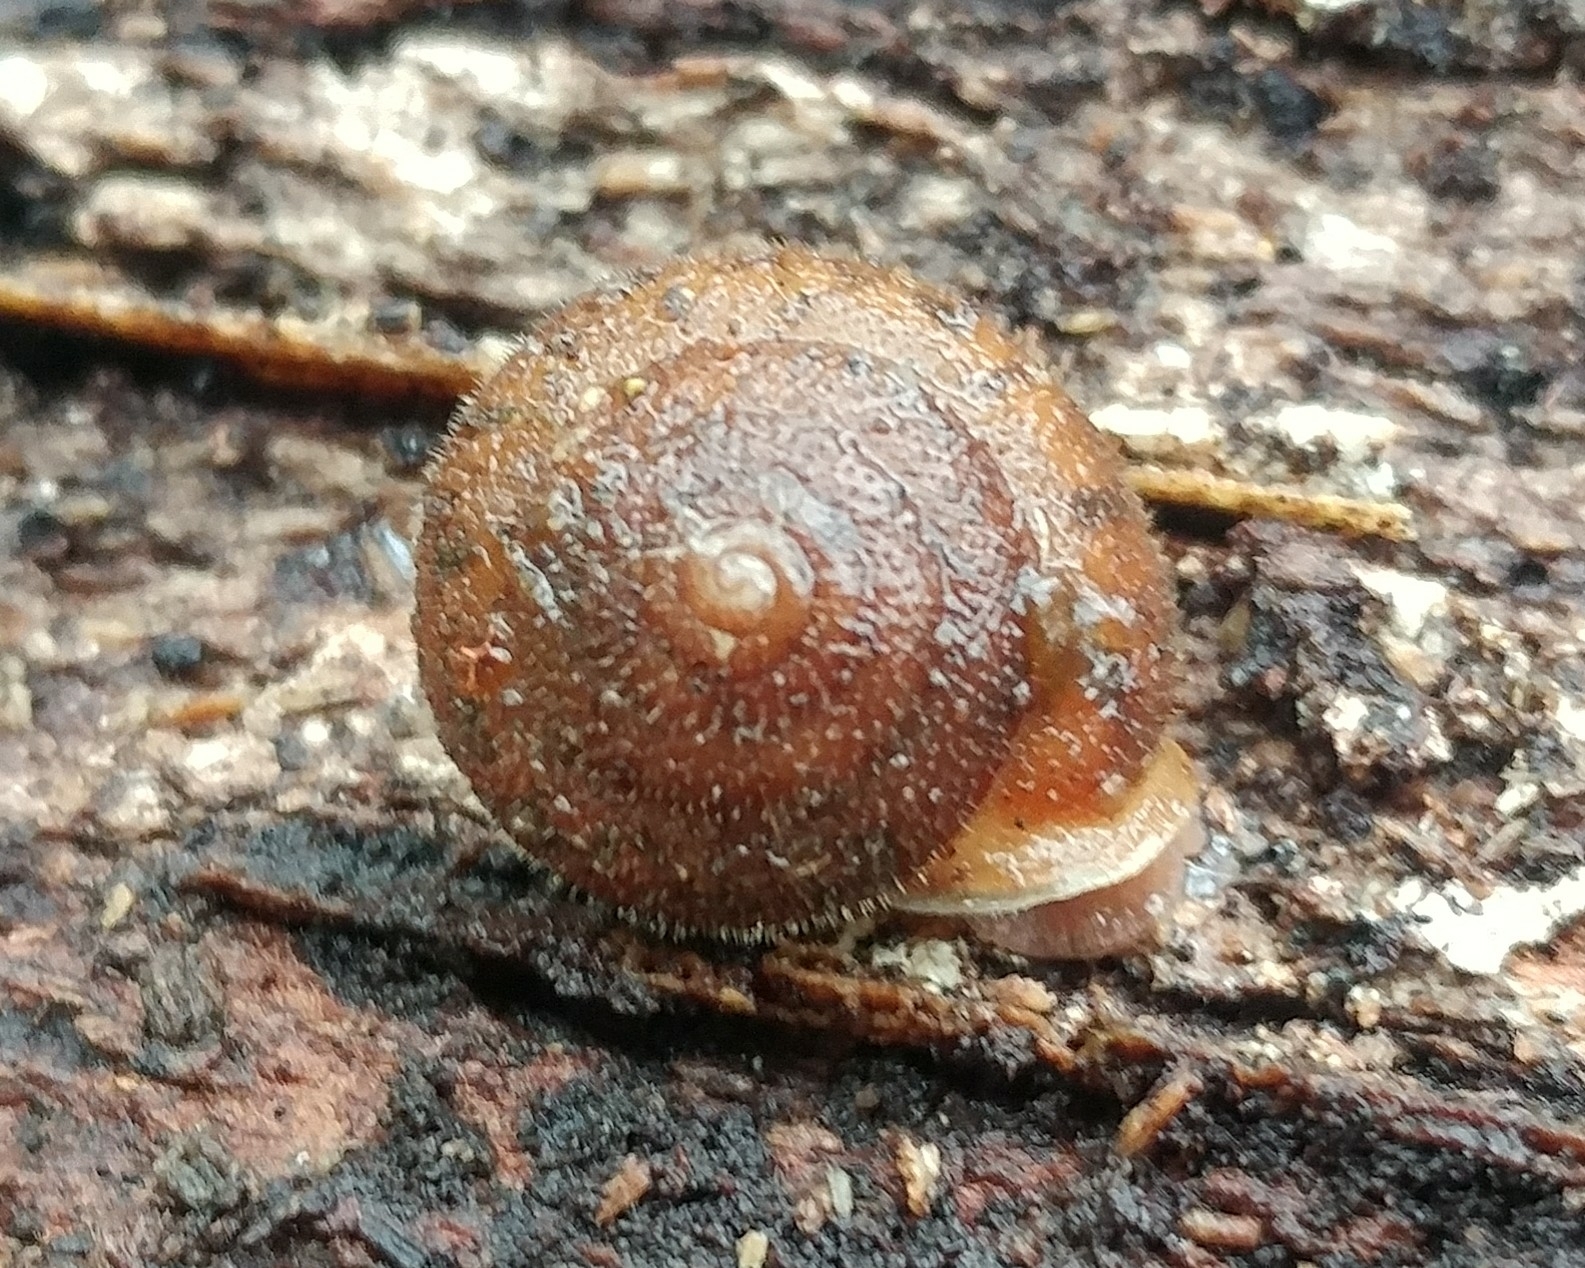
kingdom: Animalia
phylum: Mollusca
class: Gastropoda
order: Stylommatophora
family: Polygyridae
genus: Vespericola
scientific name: Vespericola columbianus
